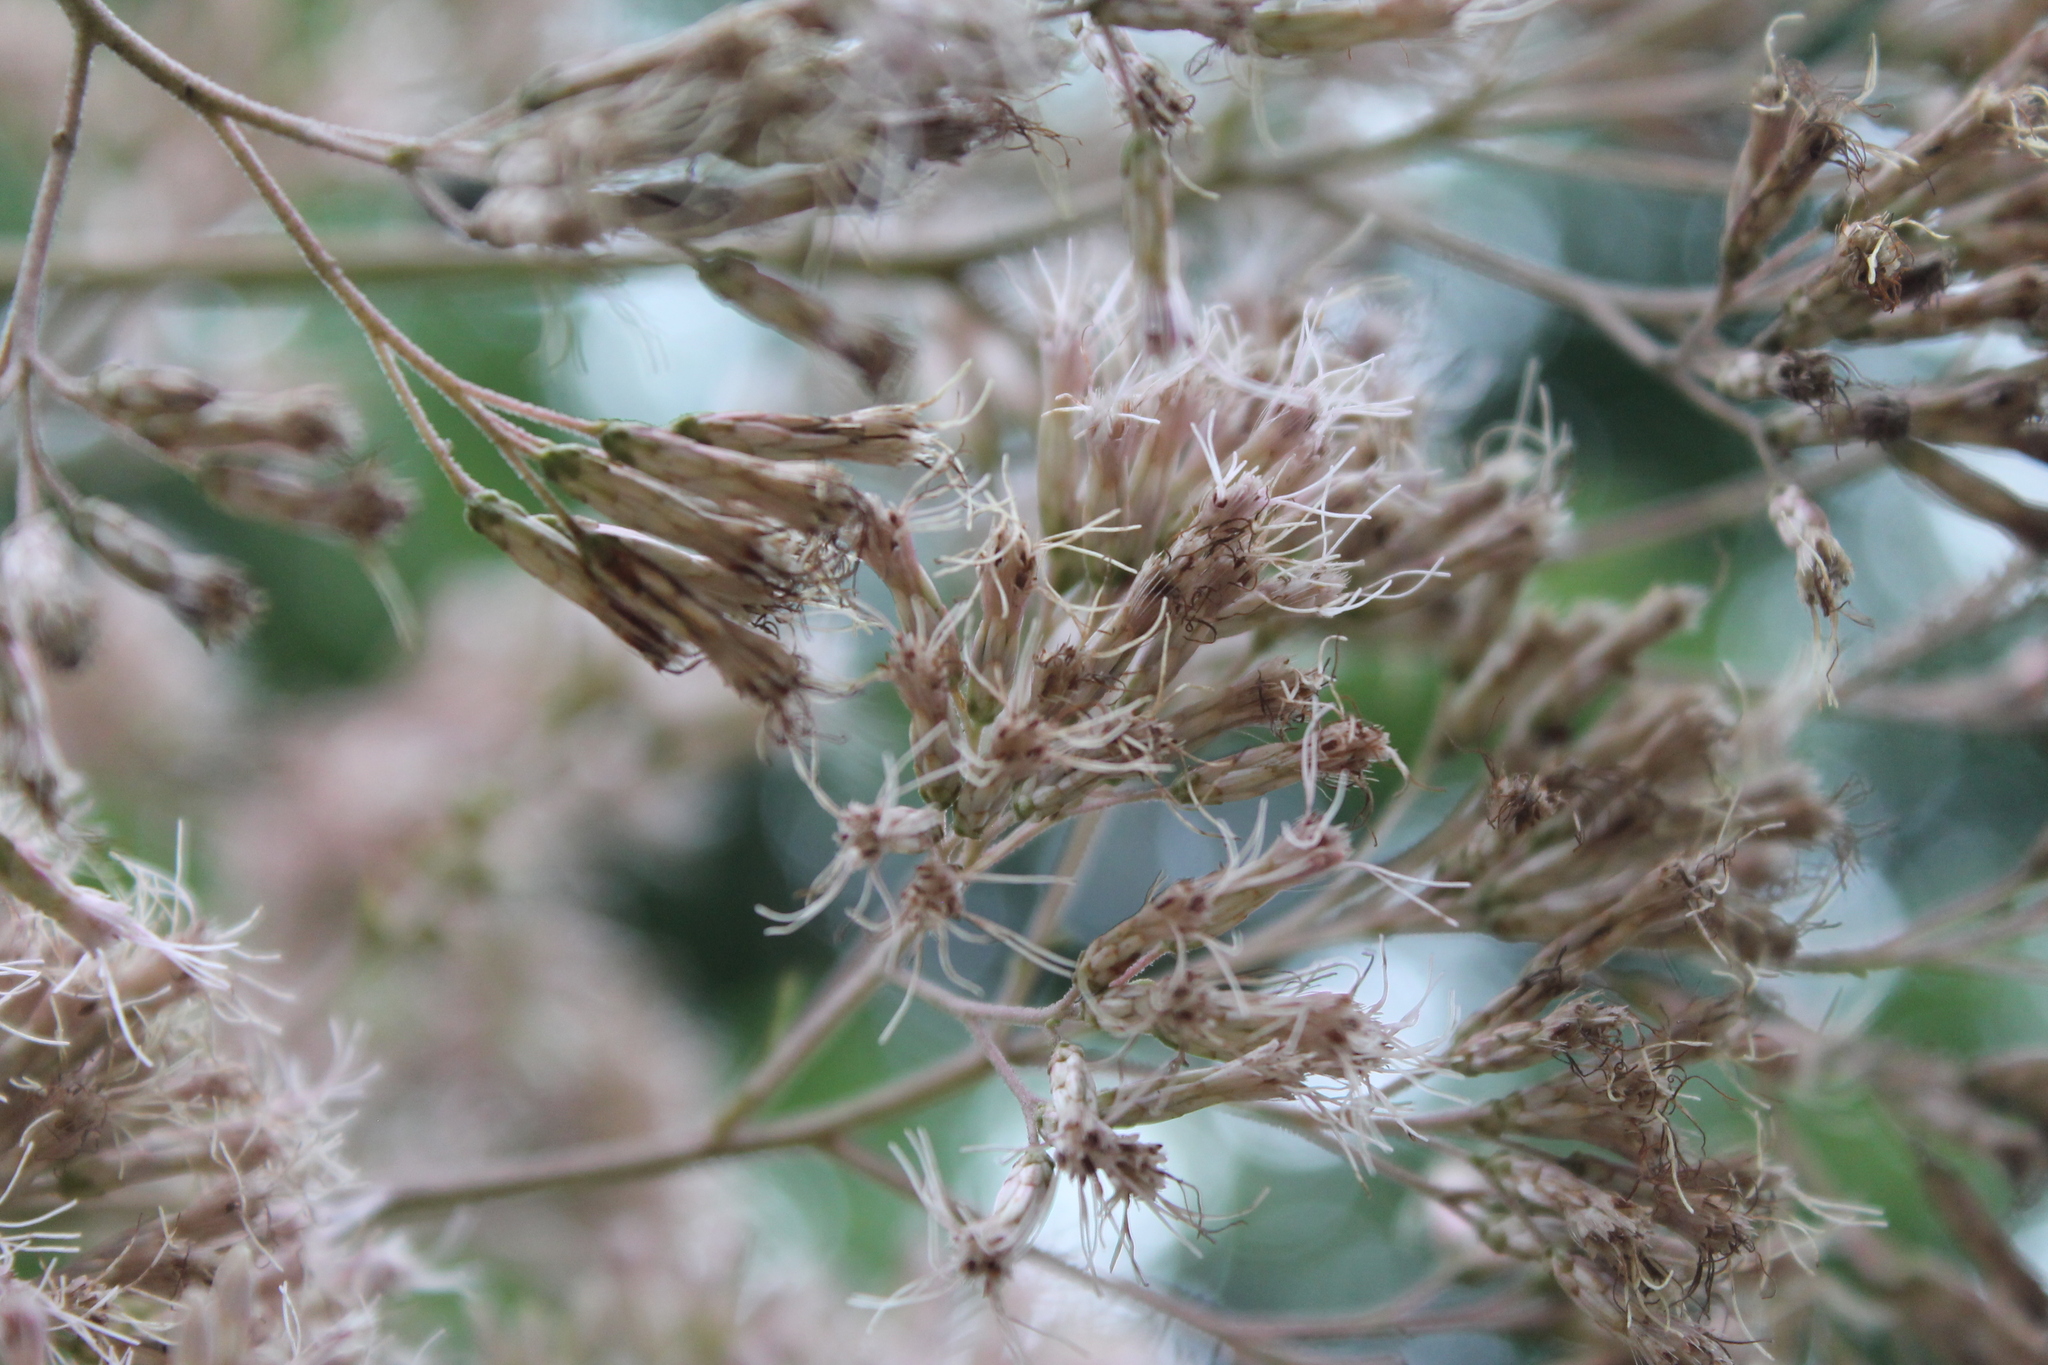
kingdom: Plantae
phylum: Tracheophyta
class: Magnoliopsida
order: Asterales
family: Asteraceae
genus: Eutrochium
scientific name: Eutrochium fistulosum
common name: Trumpetweed
